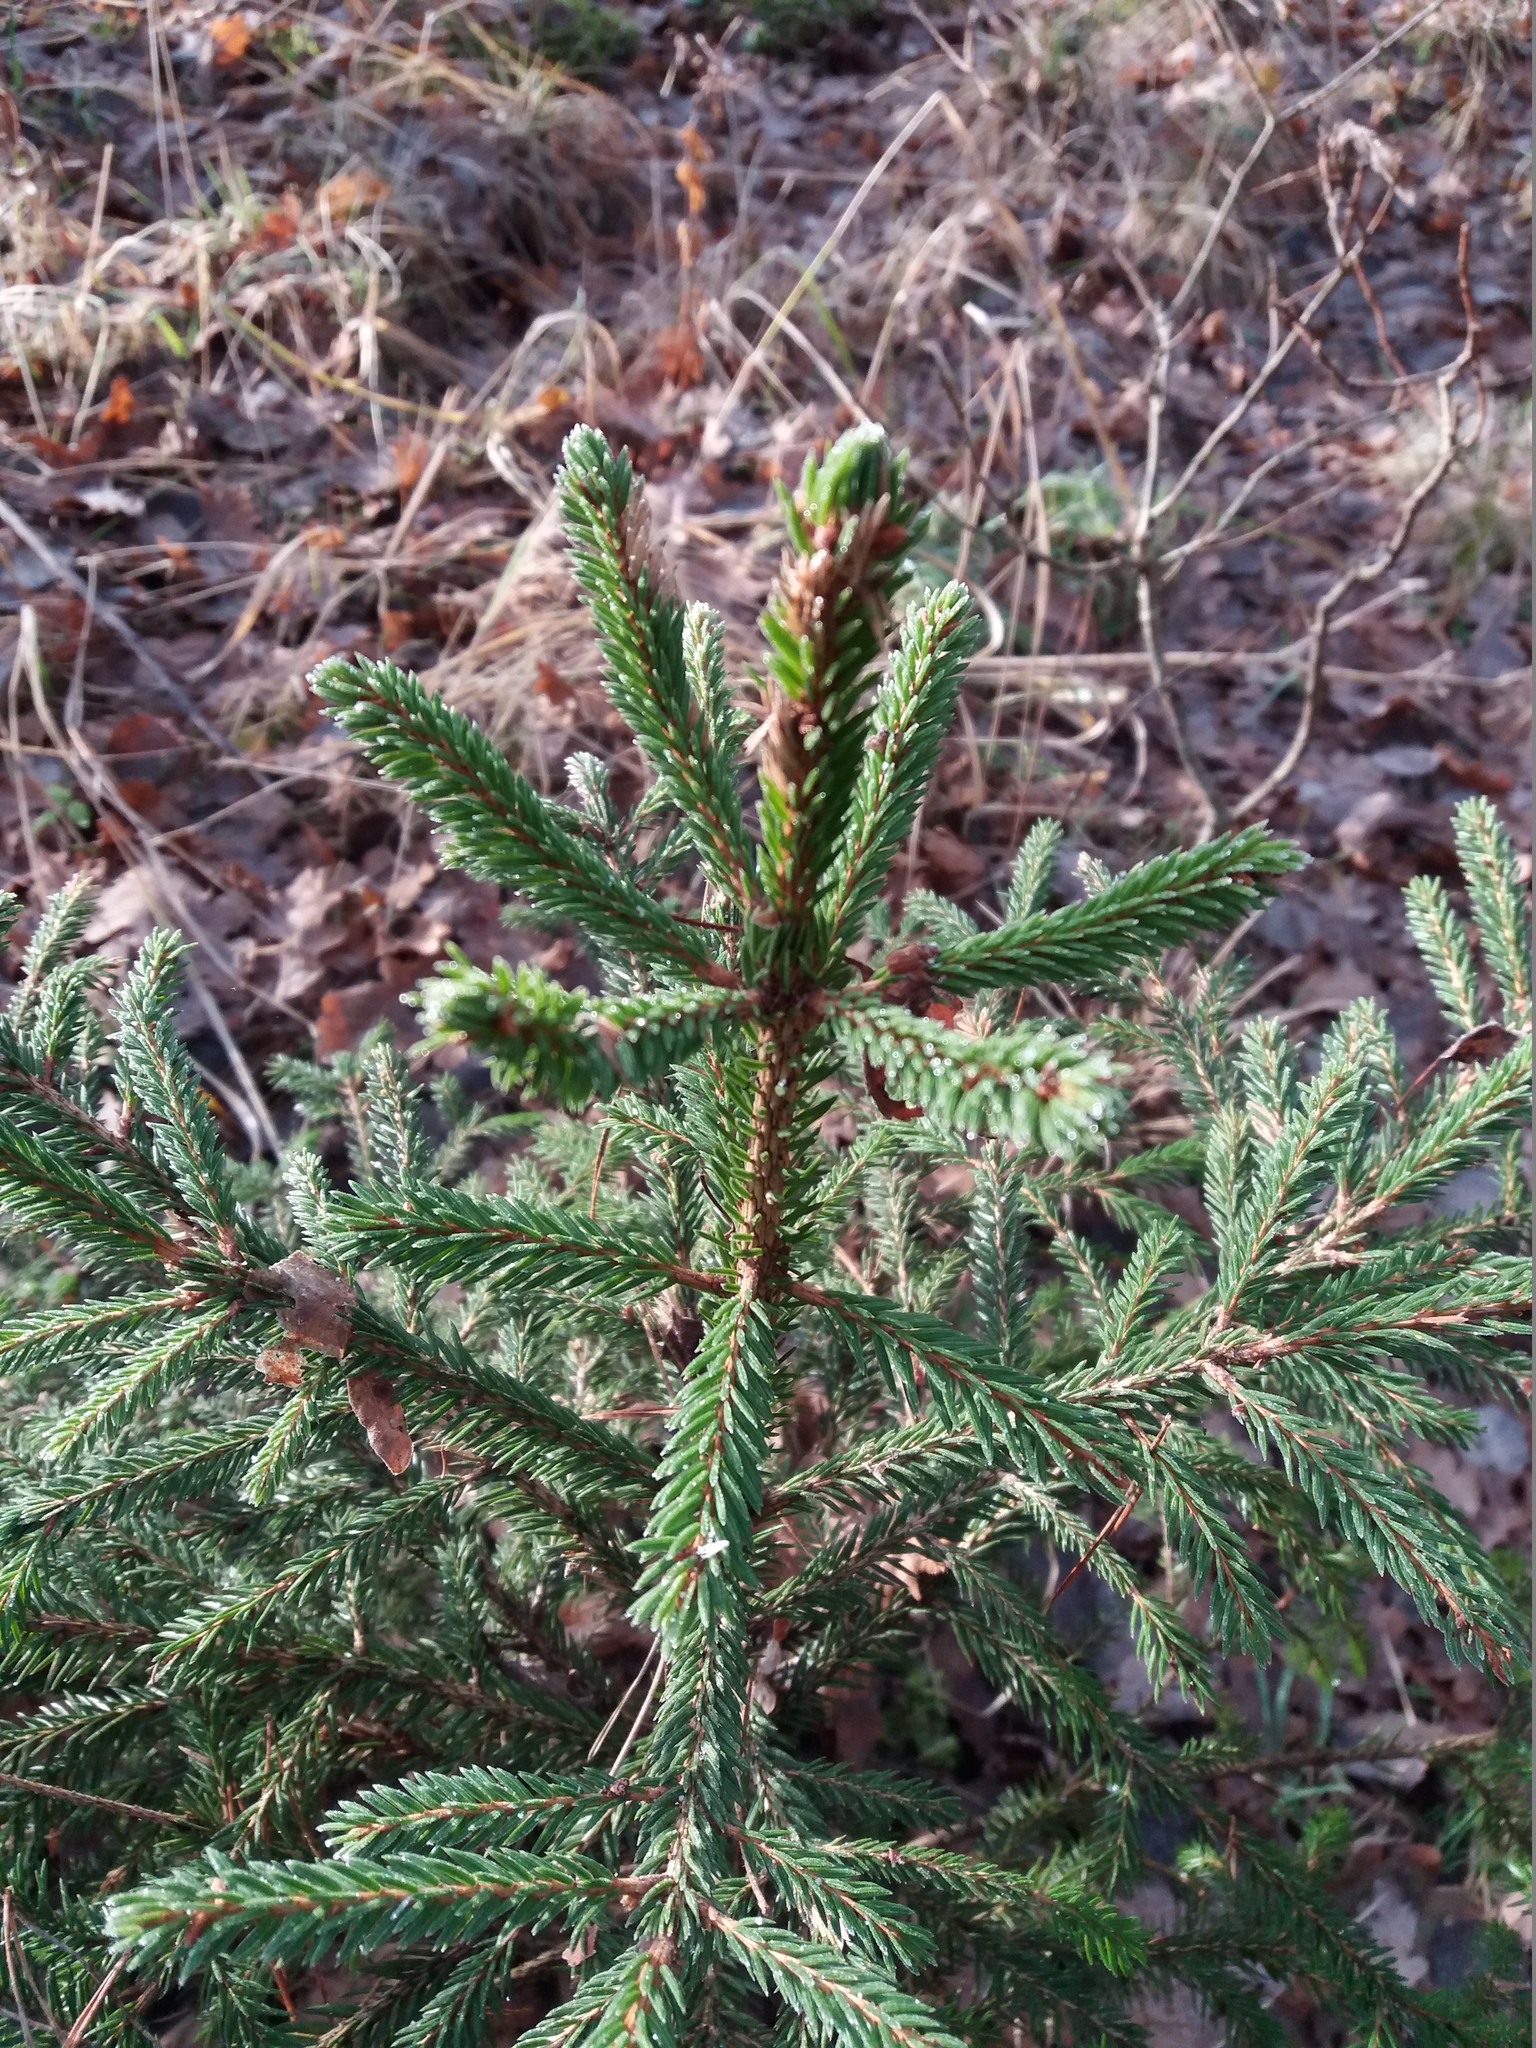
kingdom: Plantae
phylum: Tracheophyta
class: Pinopsida
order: Pinales
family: Pinaceae
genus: Picea
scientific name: Picea abies
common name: Norway spruce
